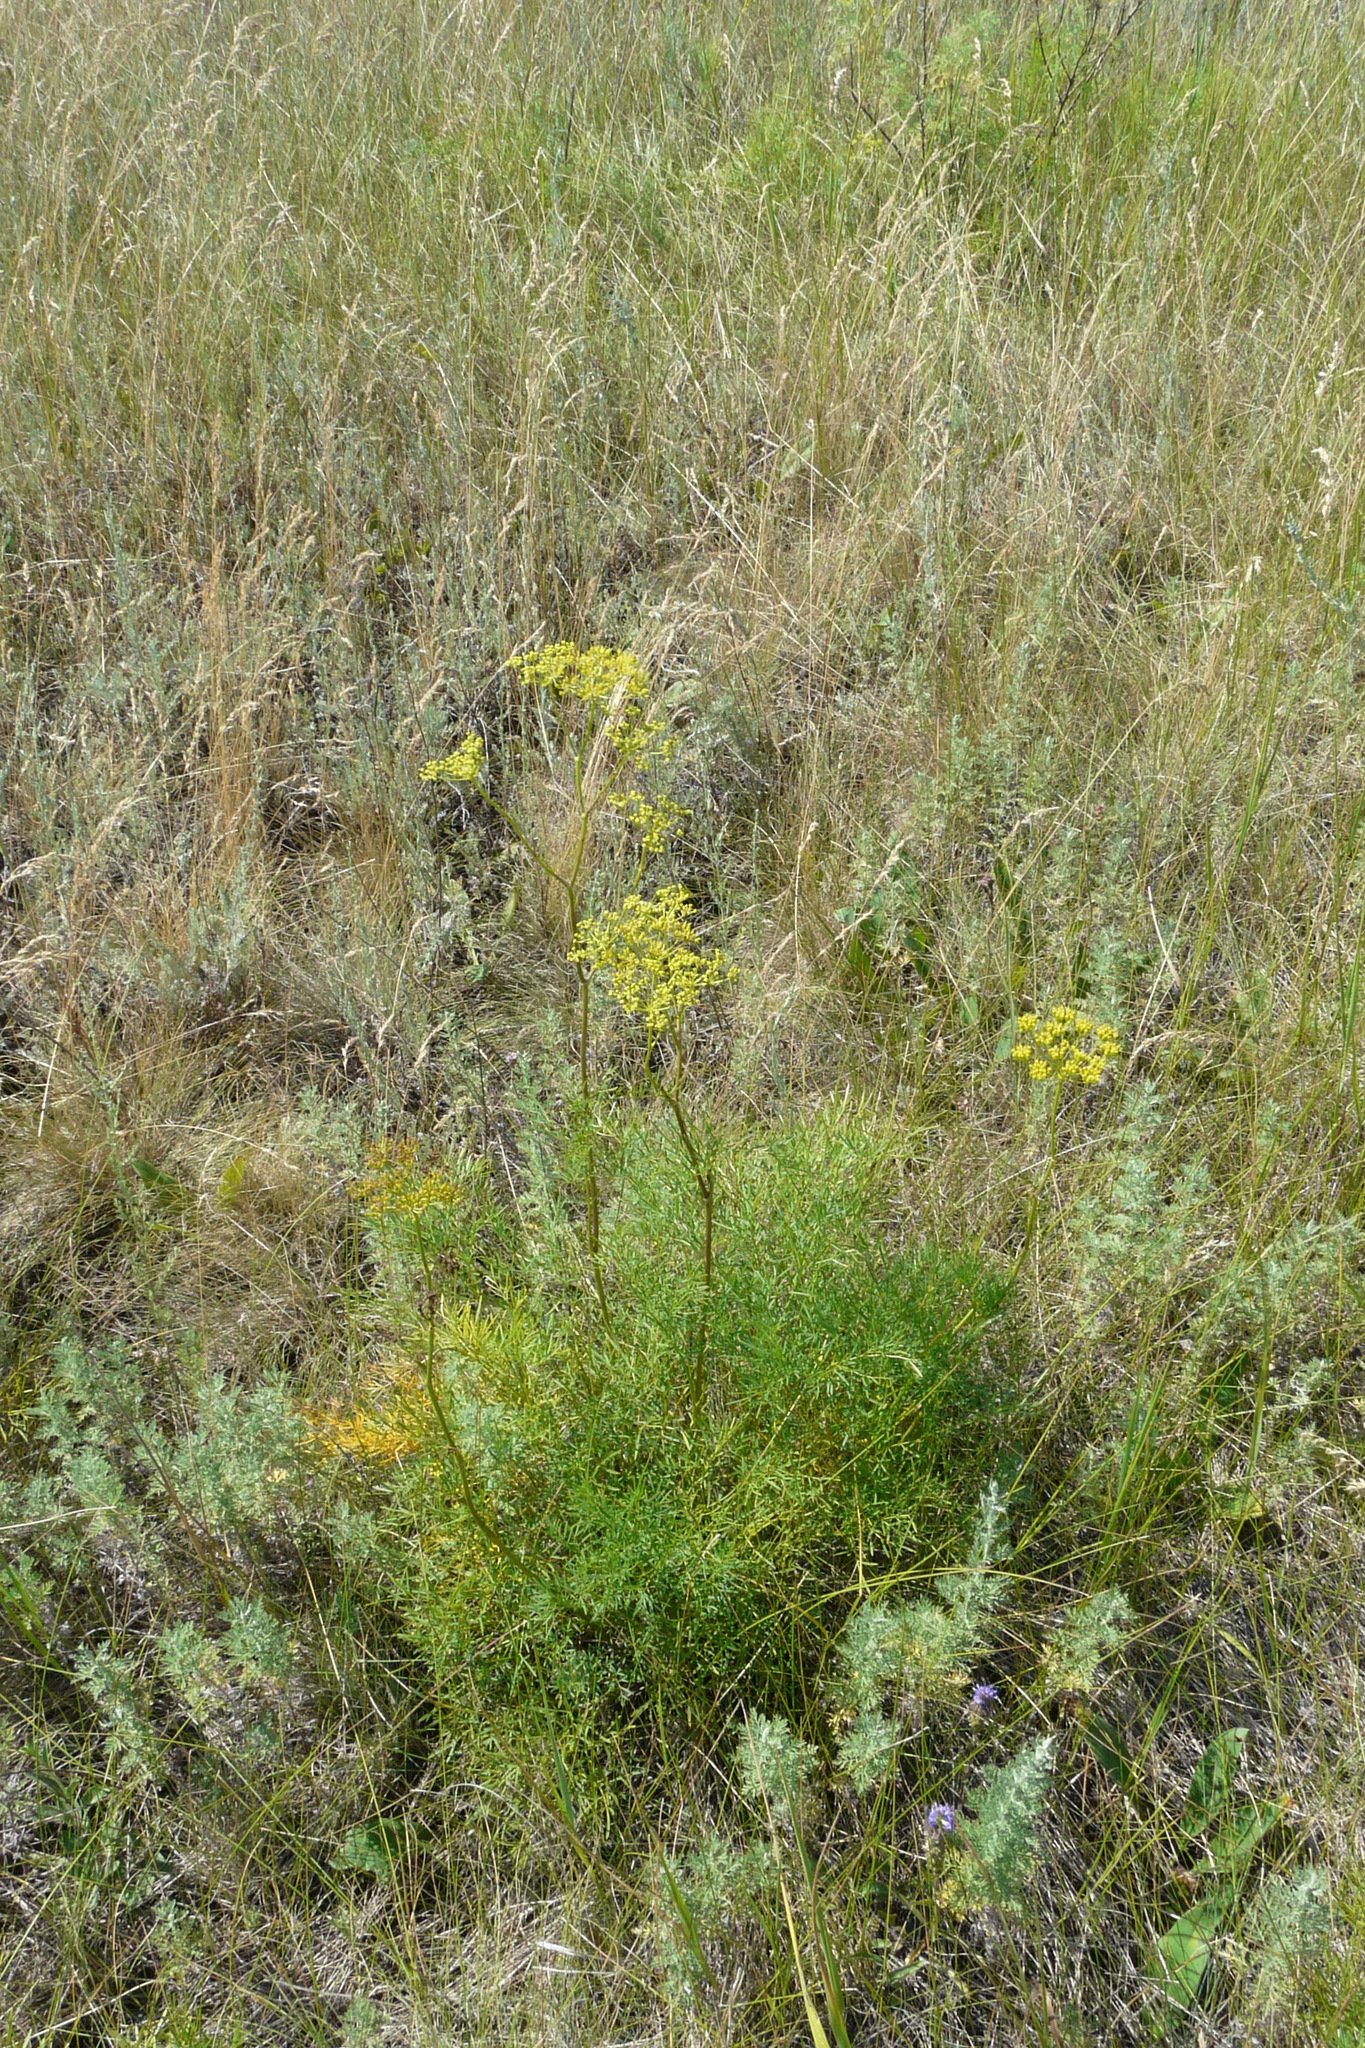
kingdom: Plantae
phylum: Tracheophyta
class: Magnoliopsida
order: Apiales
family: Apiaceae
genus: Silaum
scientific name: Silaum silaus
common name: Pepper-saxifrage
